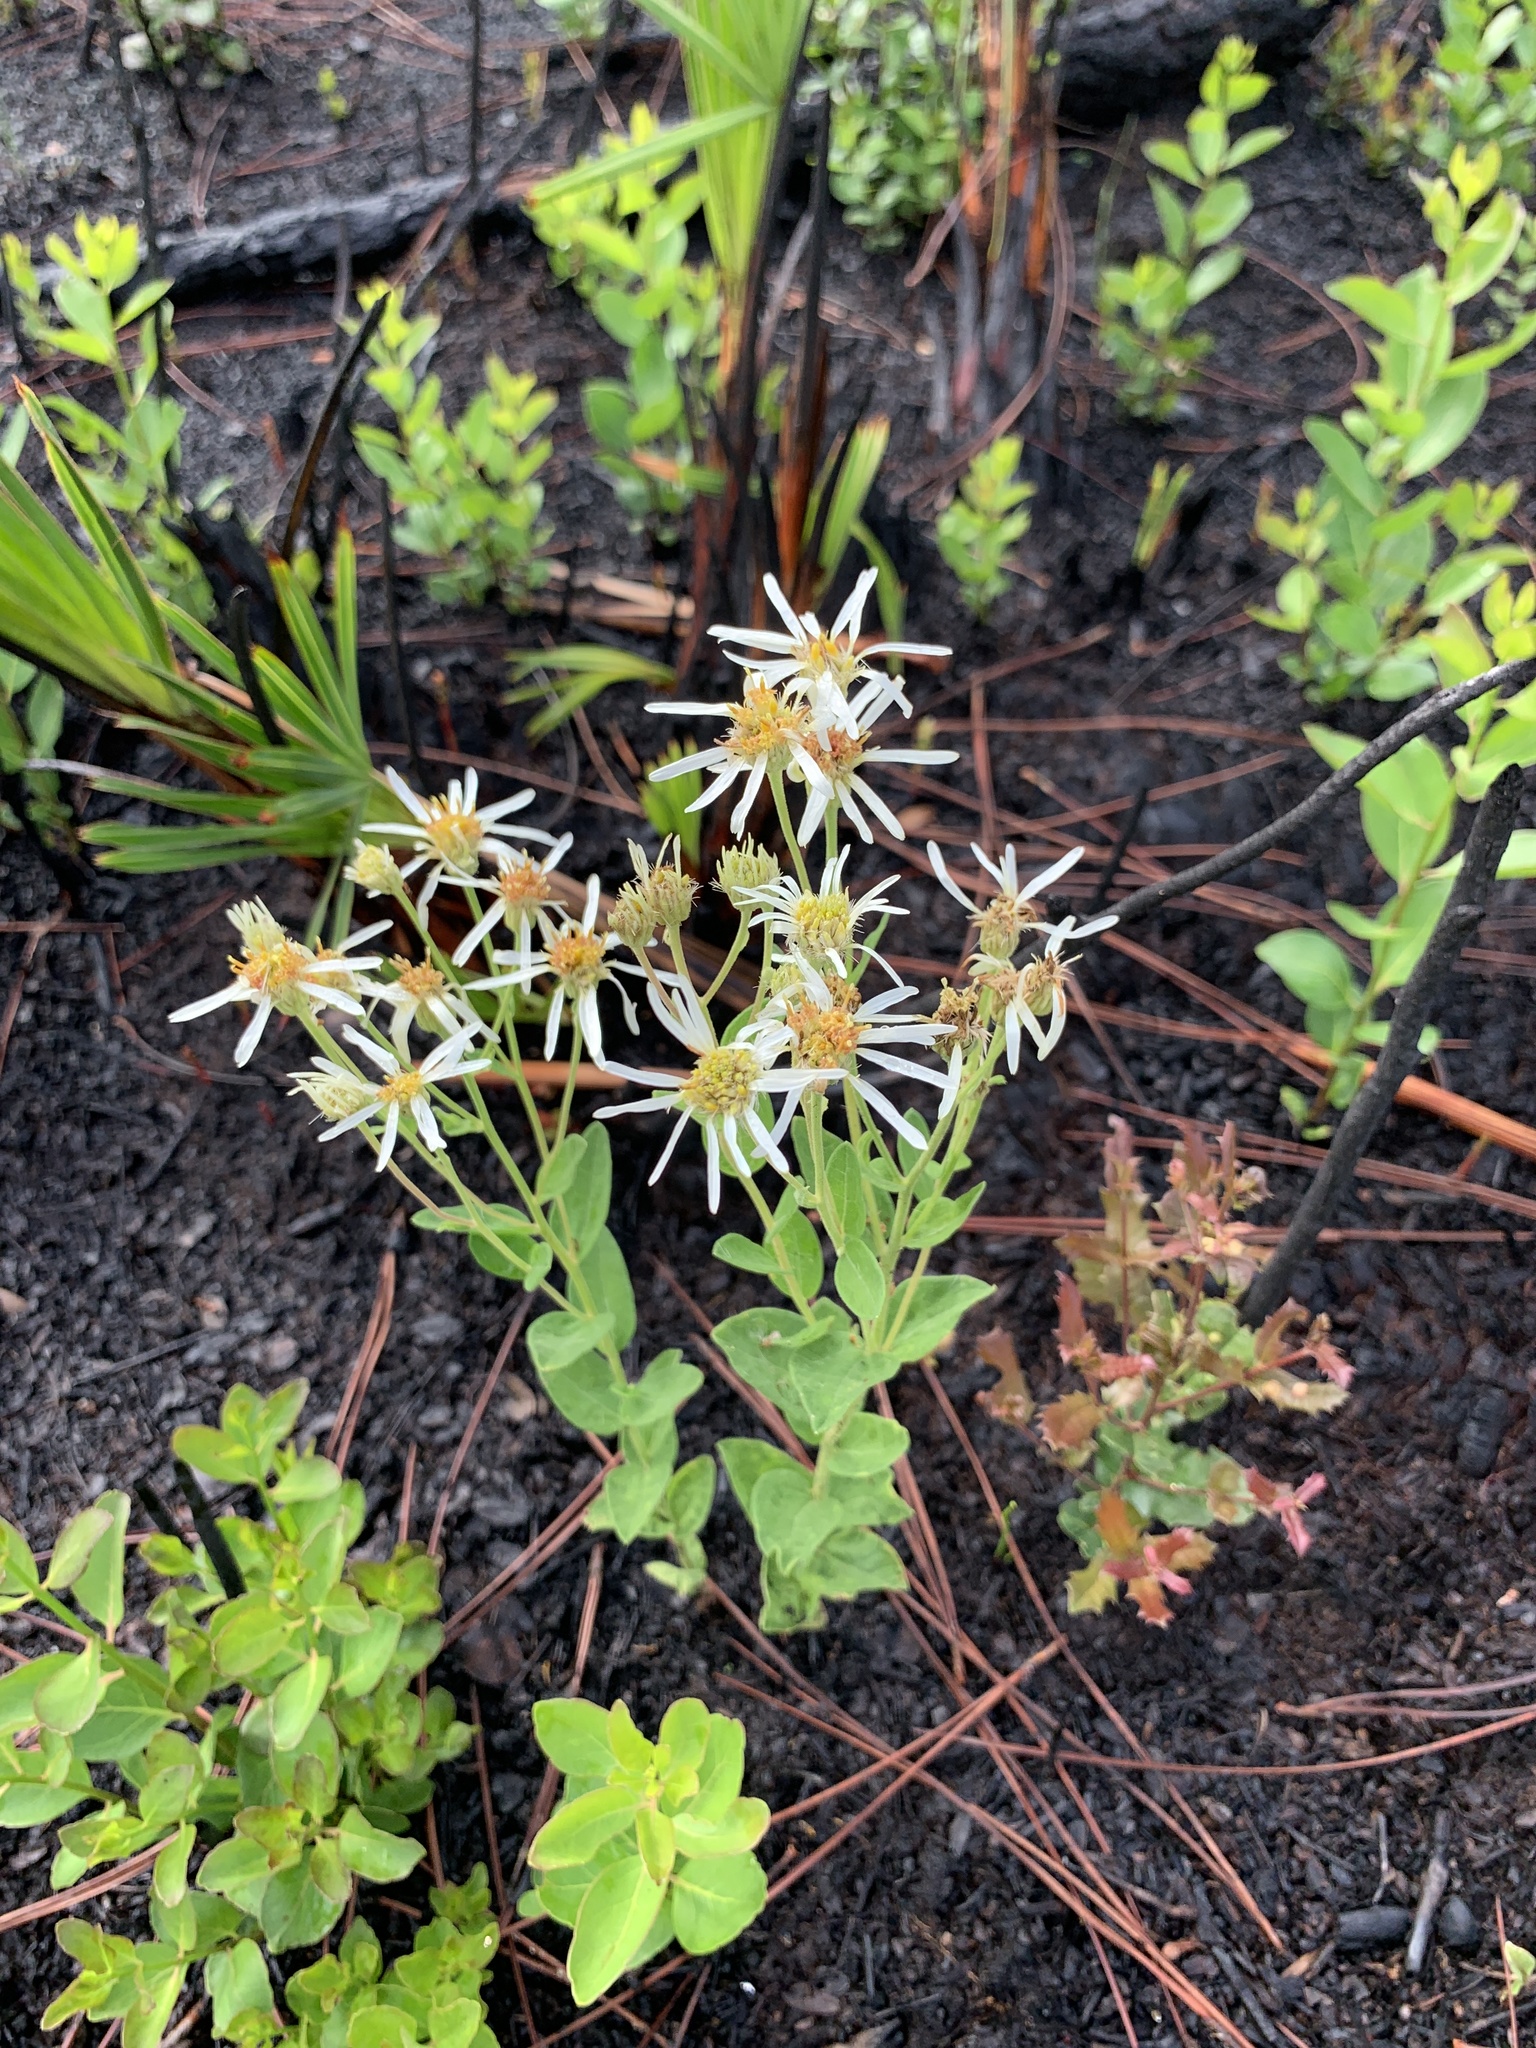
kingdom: Plantae
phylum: Tracheophyta
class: Magnoliopsida
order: Asterales
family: Asteraceae
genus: Oclemena
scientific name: Oclemena reticulata
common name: Pinebarren aster
